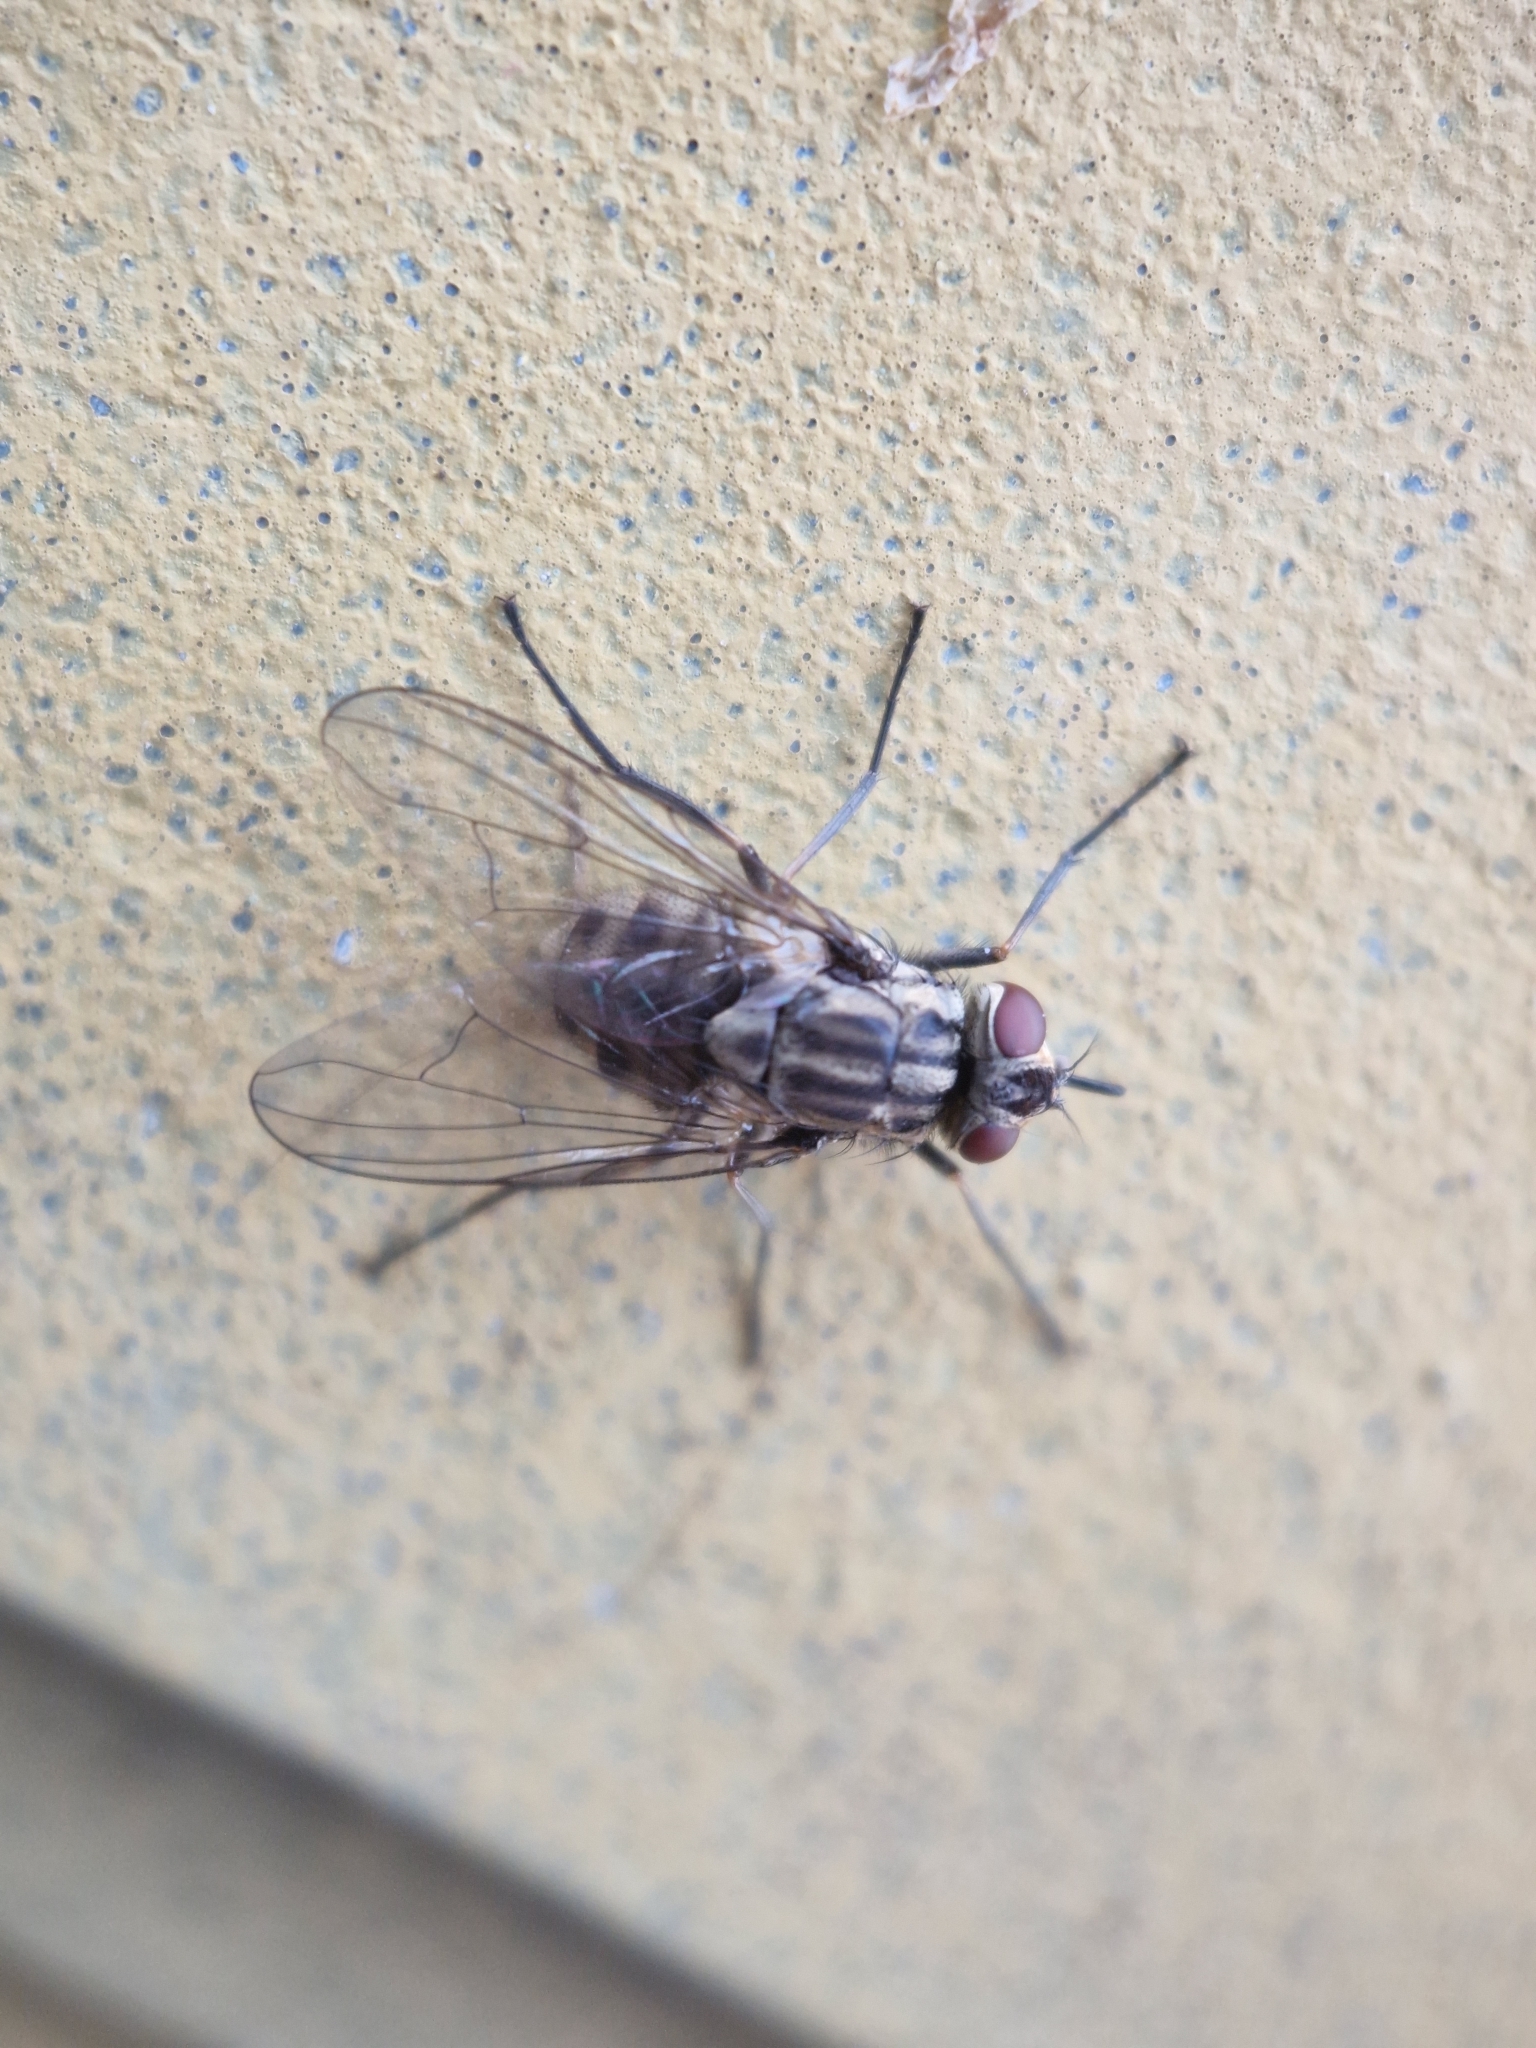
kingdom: Animalia
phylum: Arthropoda
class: Insecta
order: Diptera
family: Muscidae
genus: Stomoxys
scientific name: Stomoxys calcitrans
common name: Stable fly
